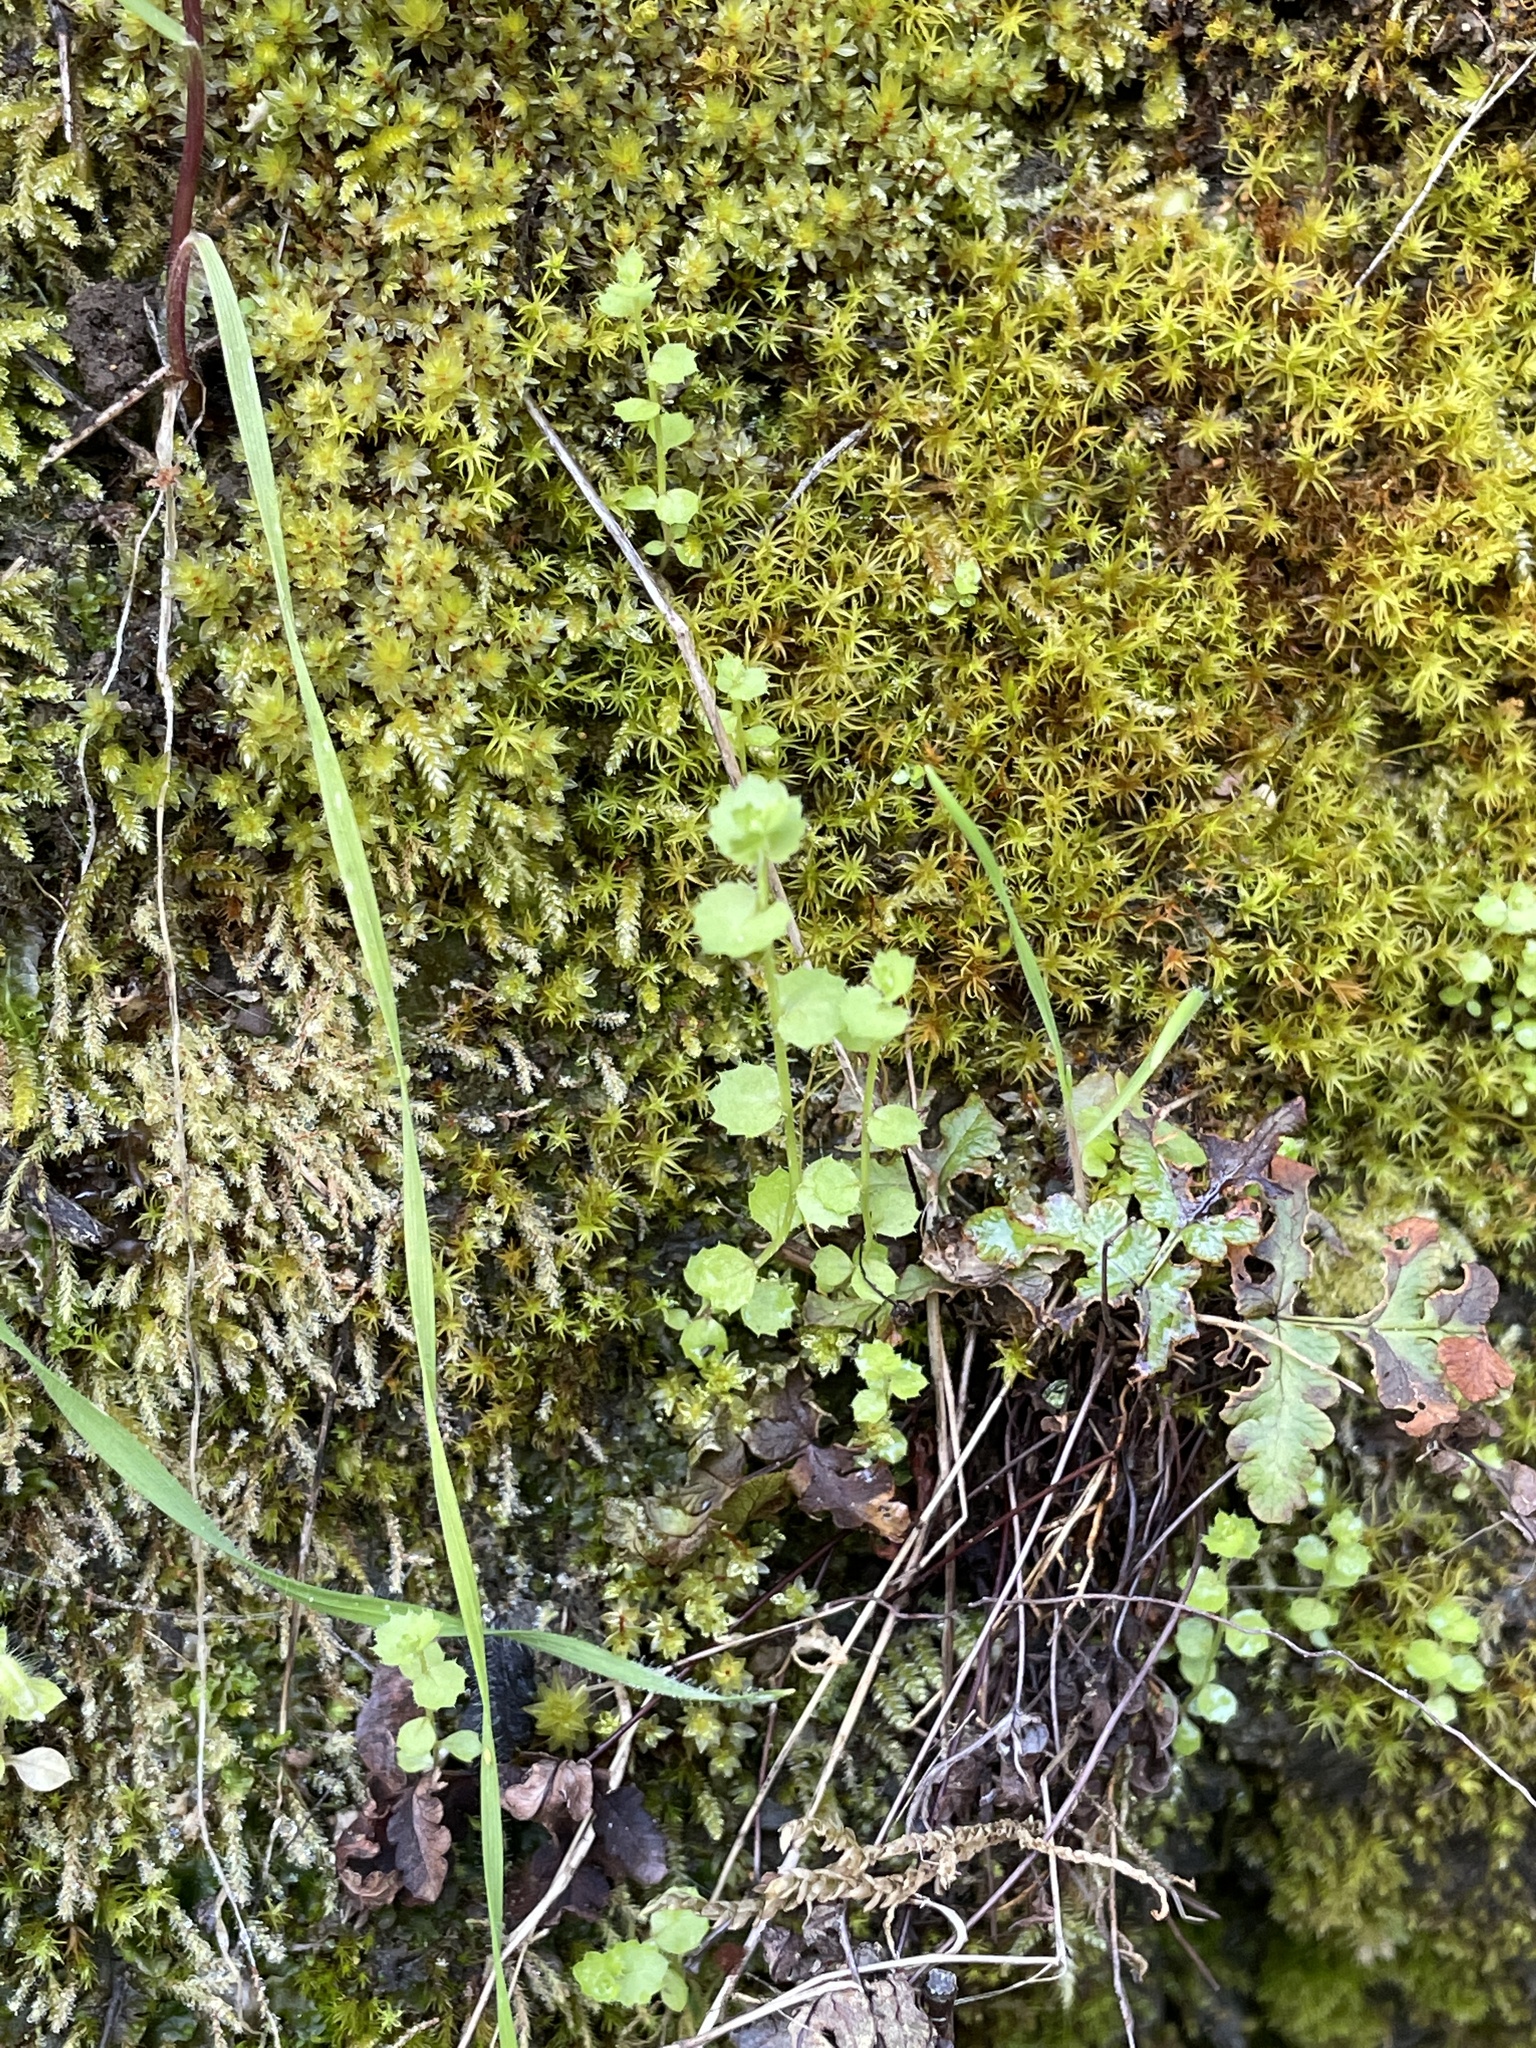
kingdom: Plantae
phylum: Tracheophyta
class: Magnoliopsida
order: Asterales
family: Campanulaceae
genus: Heterocodon
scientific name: Heterocodon rariflorum
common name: Rareflower heterocodon
